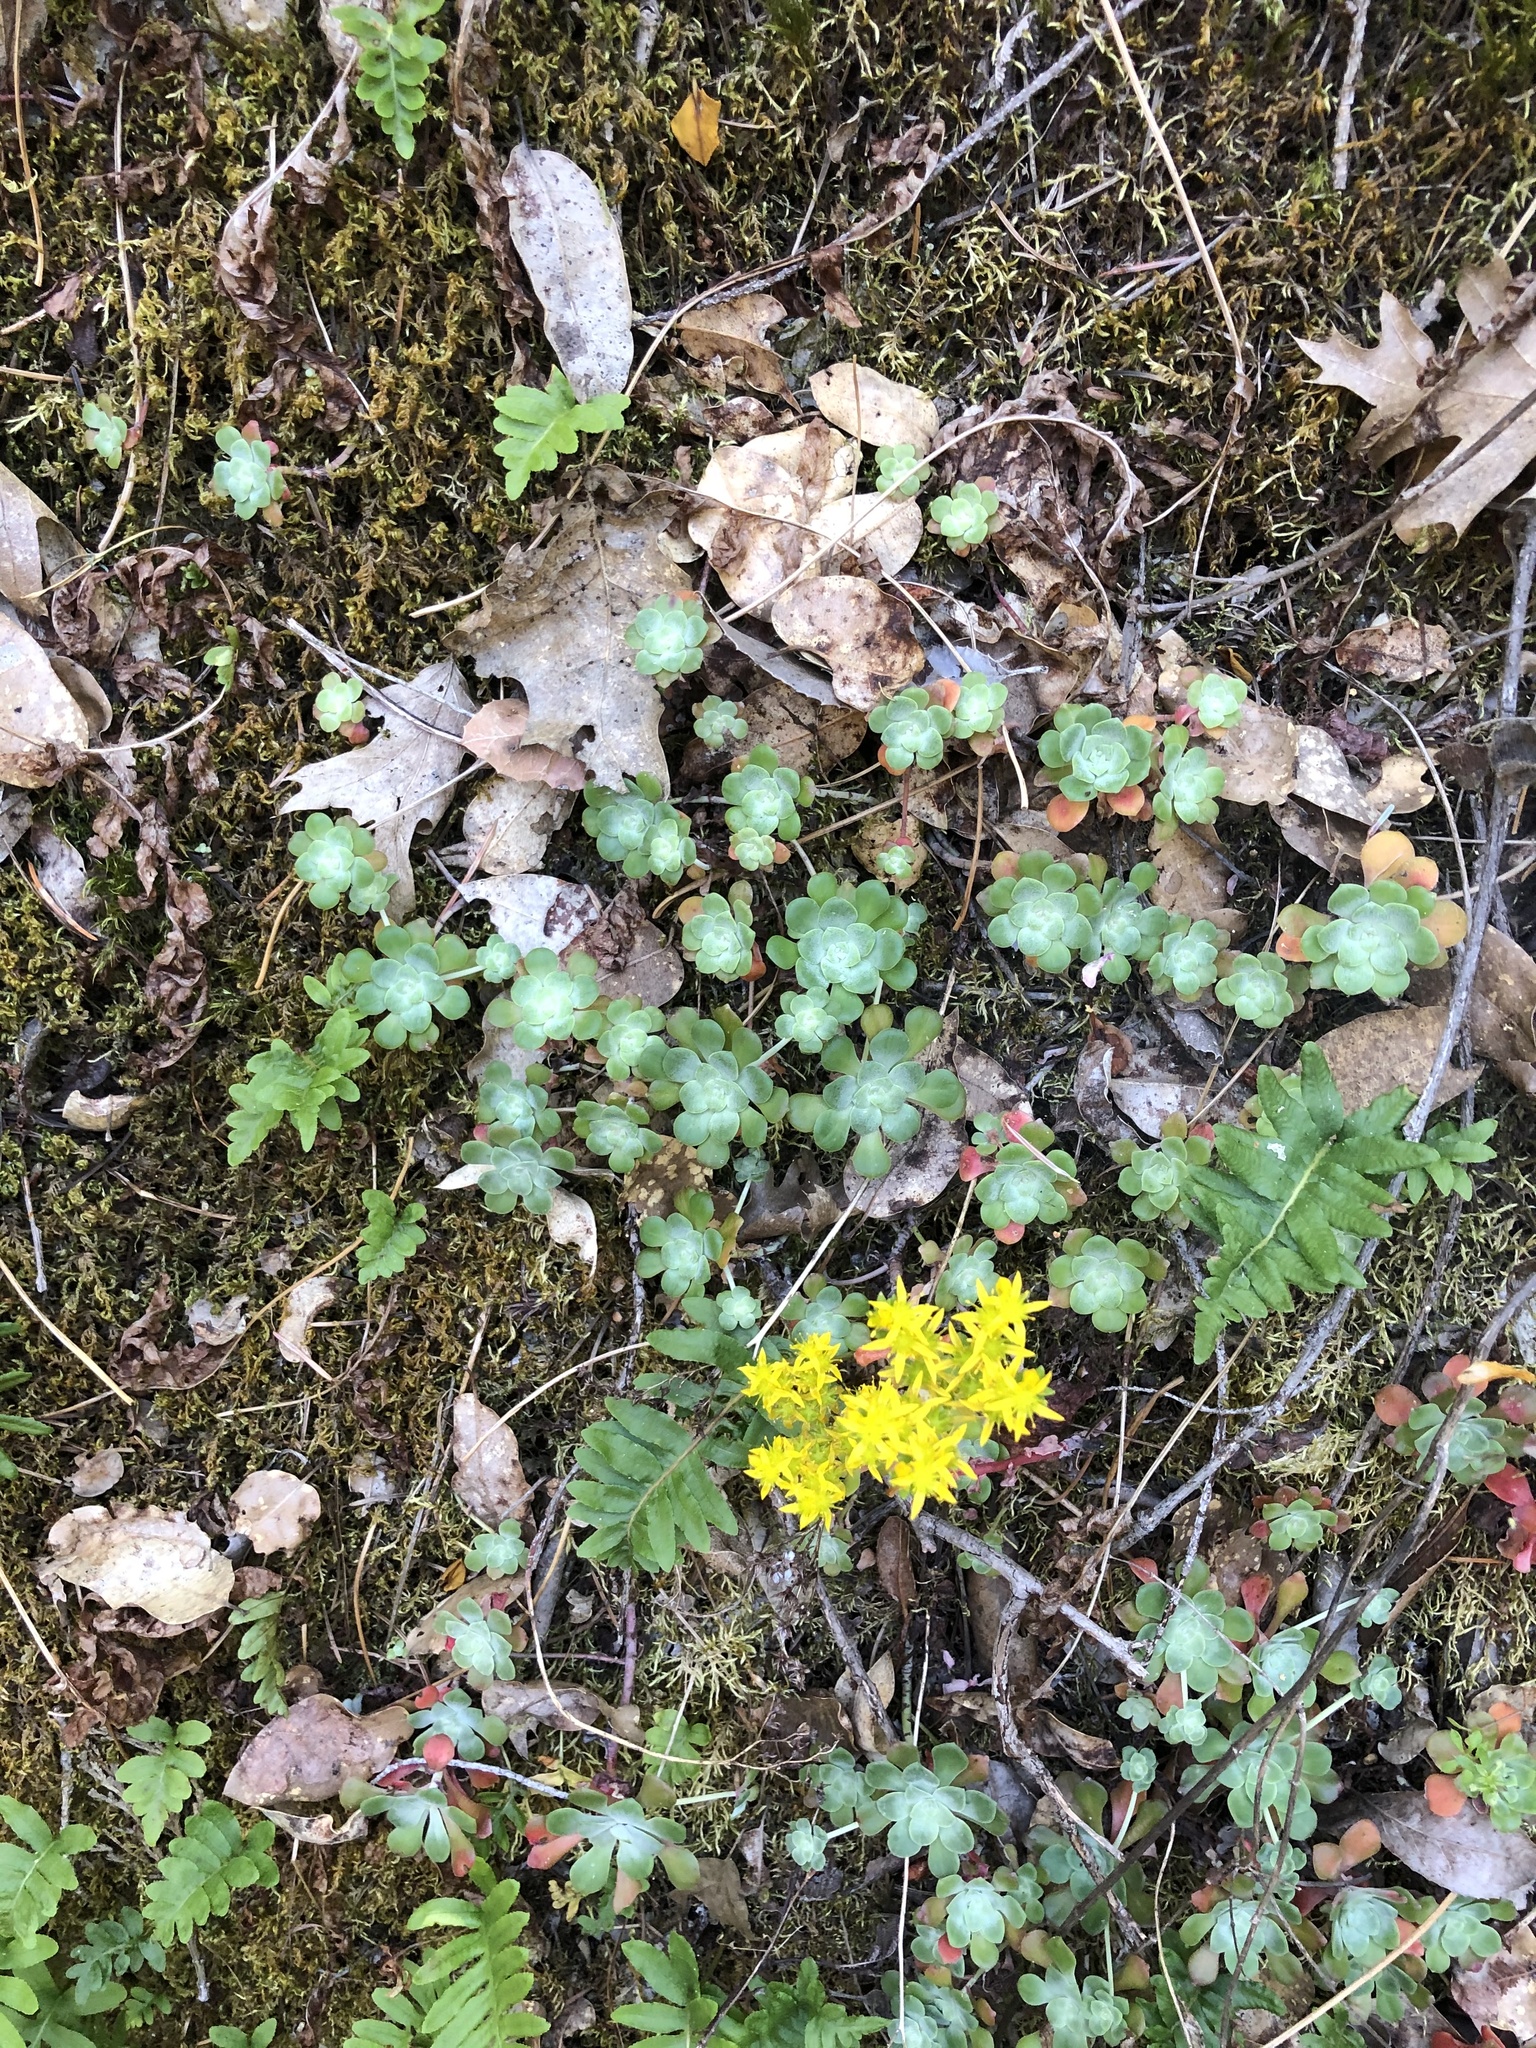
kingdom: Plantae
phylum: Tracheophyta
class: Magnoliopsida
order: Saxifragales
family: Crassulaceae
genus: Sedum
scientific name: Sedum spathulifolium
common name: Colorado stonecrop
